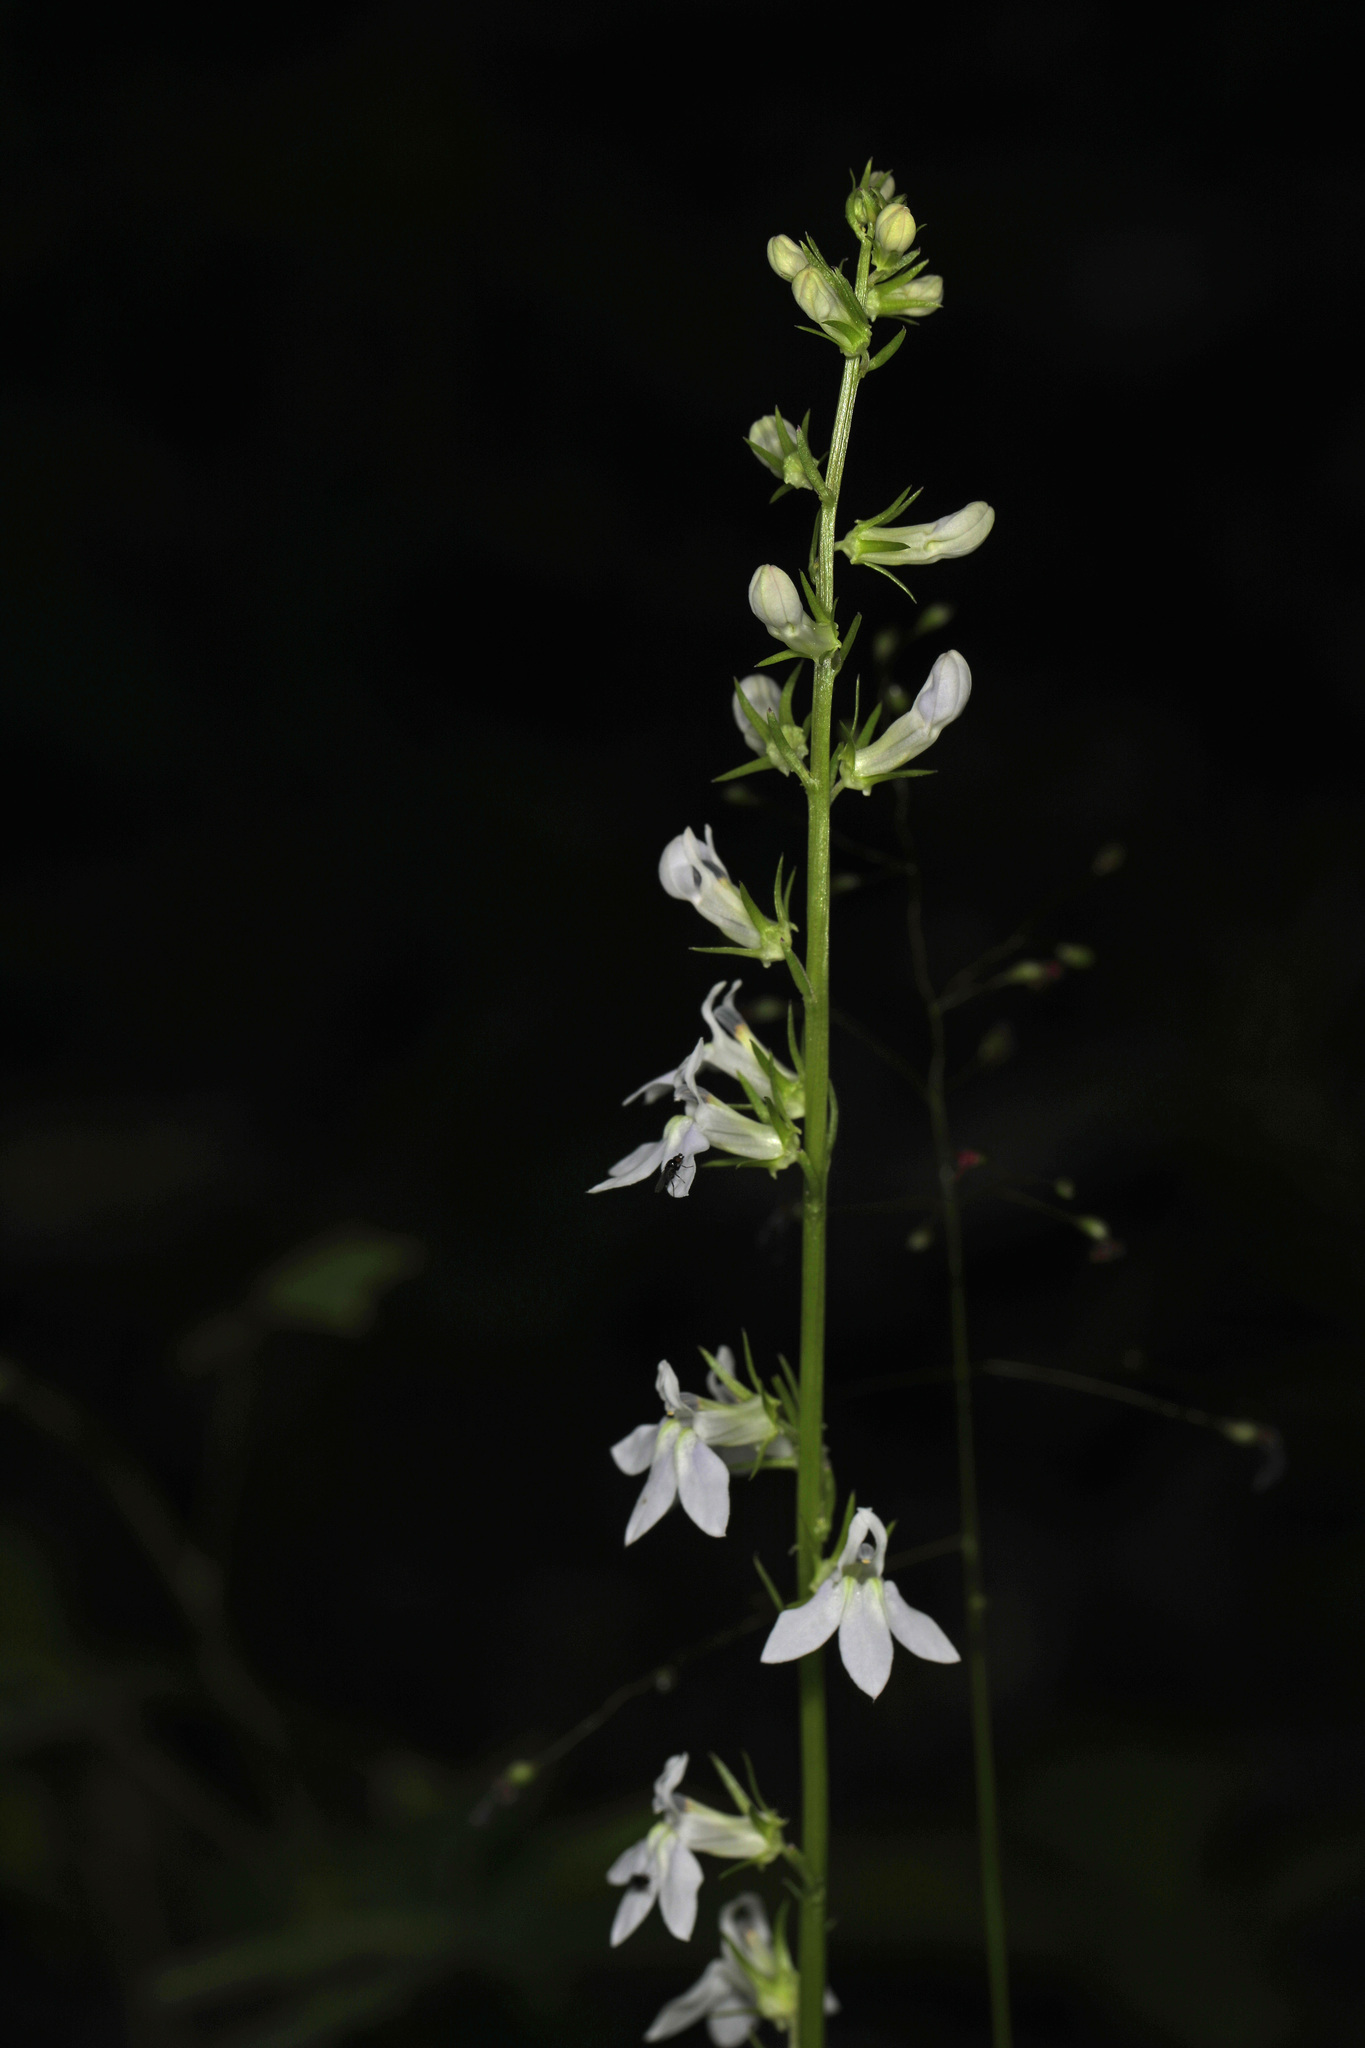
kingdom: Plantae
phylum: Tracheophyta
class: Magnoliopsida
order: Asterales
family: Campanulaceae
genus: Lobelia
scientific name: Lobelia spicata
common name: Pale-spike lobelia
